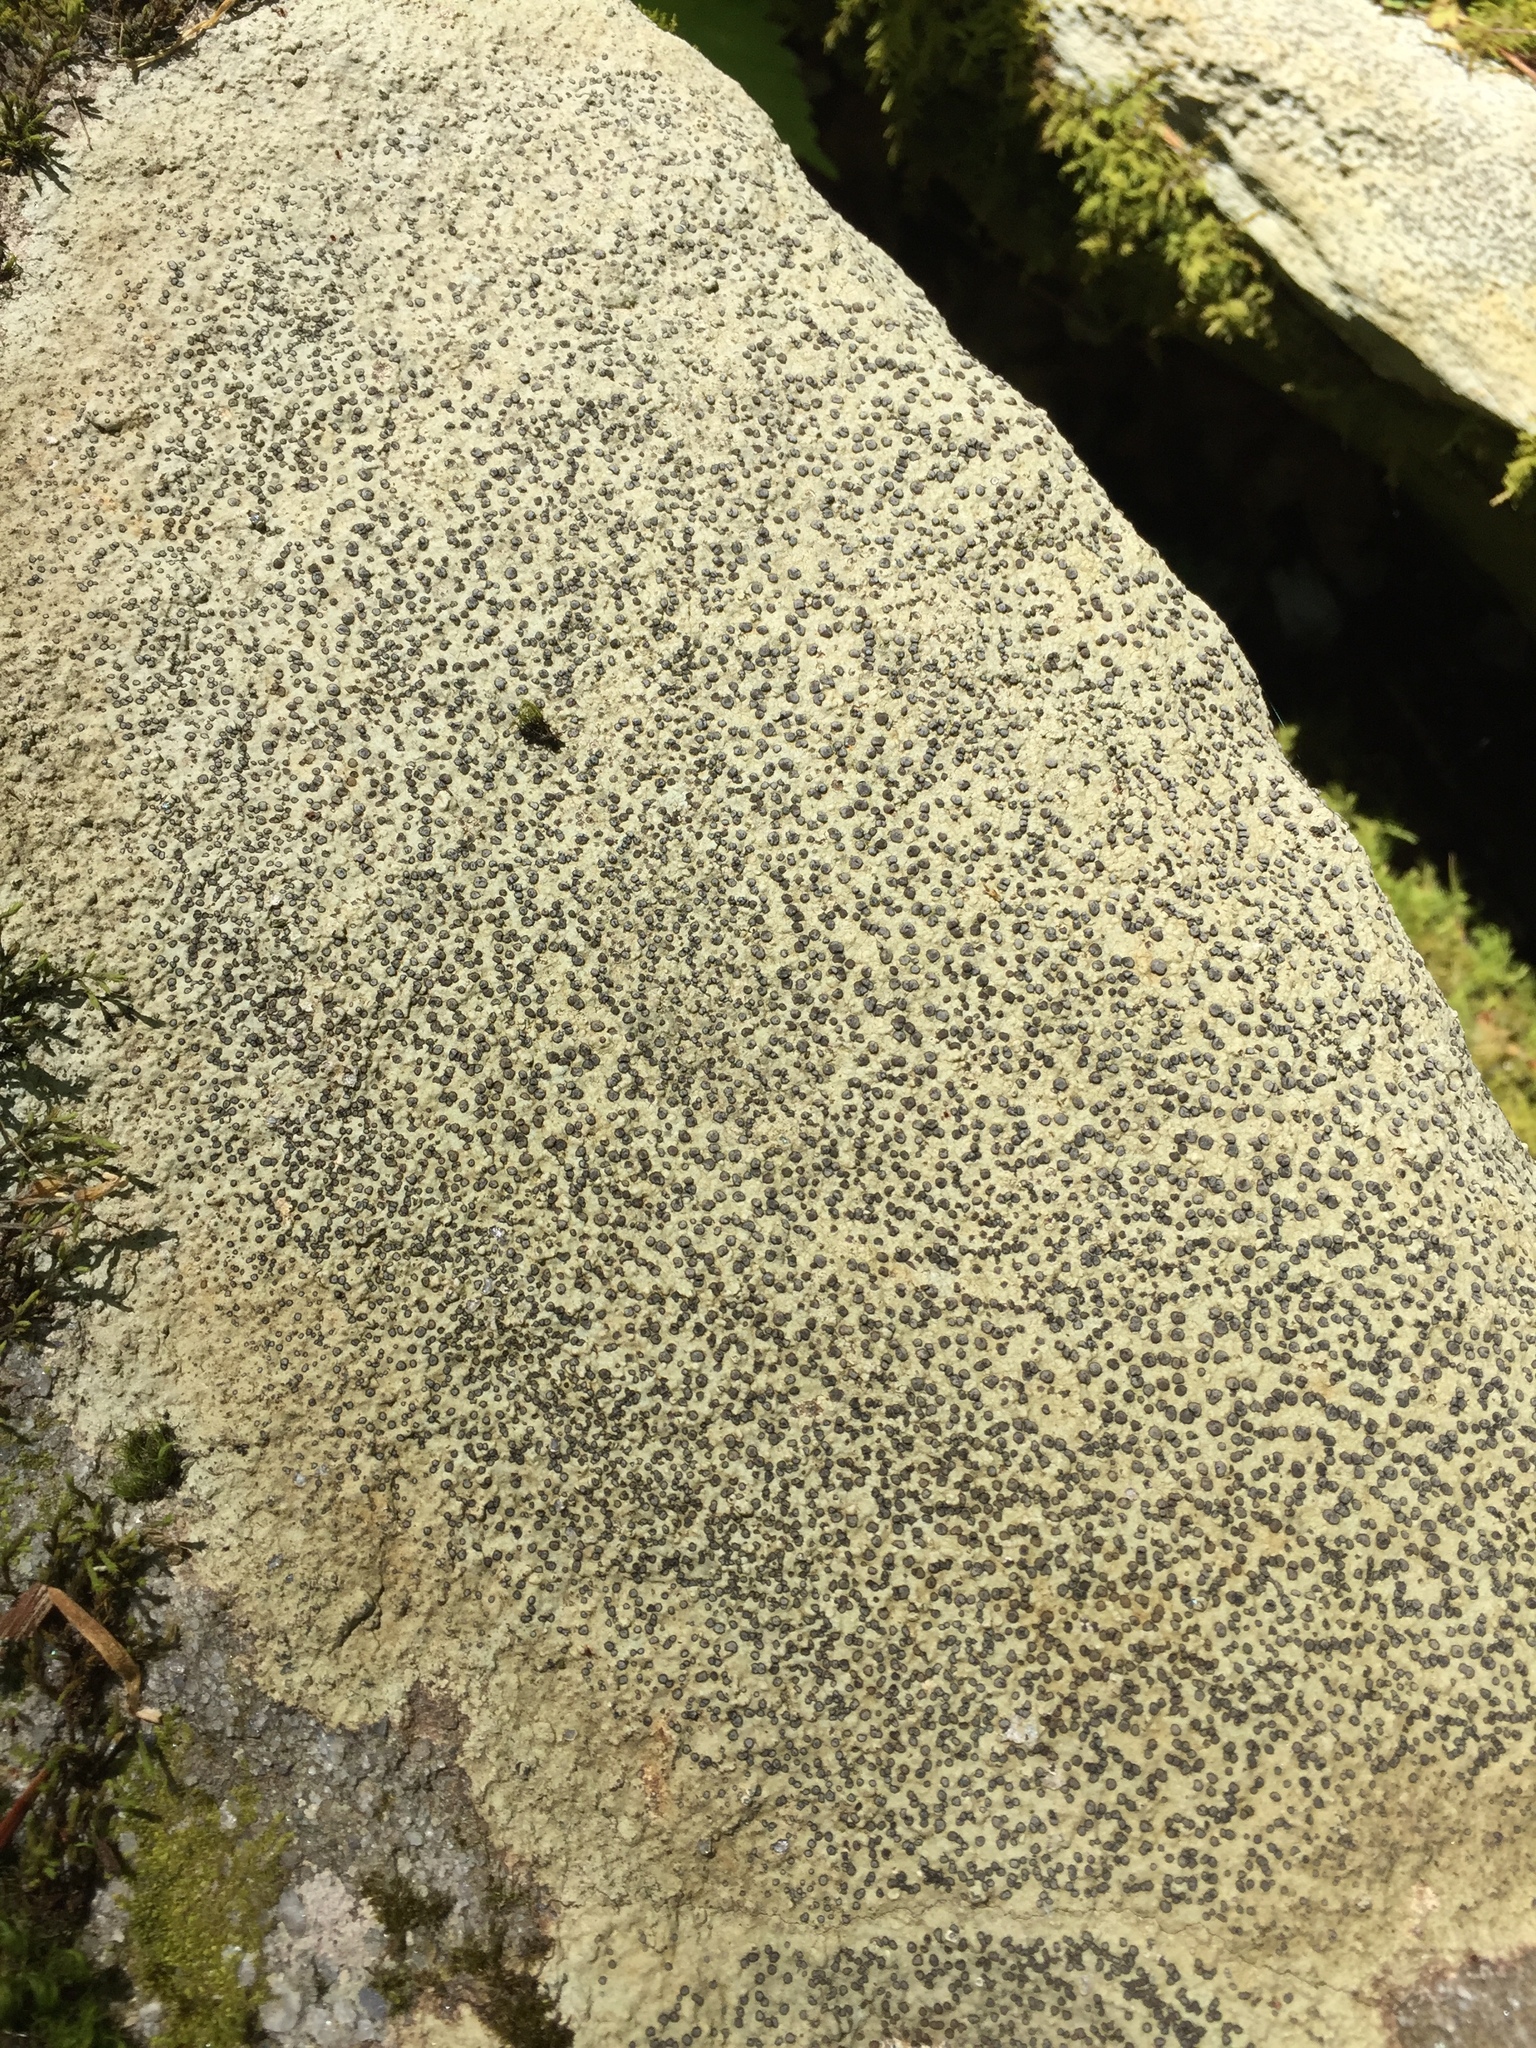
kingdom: Fungi
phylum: Ascomycota
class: Lecanoromycetes
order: Lecideales
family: Lecideaceae
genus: Porpidia
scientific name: Porpidia albocaerulescens
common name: Smokey-eyed boulder lichen
